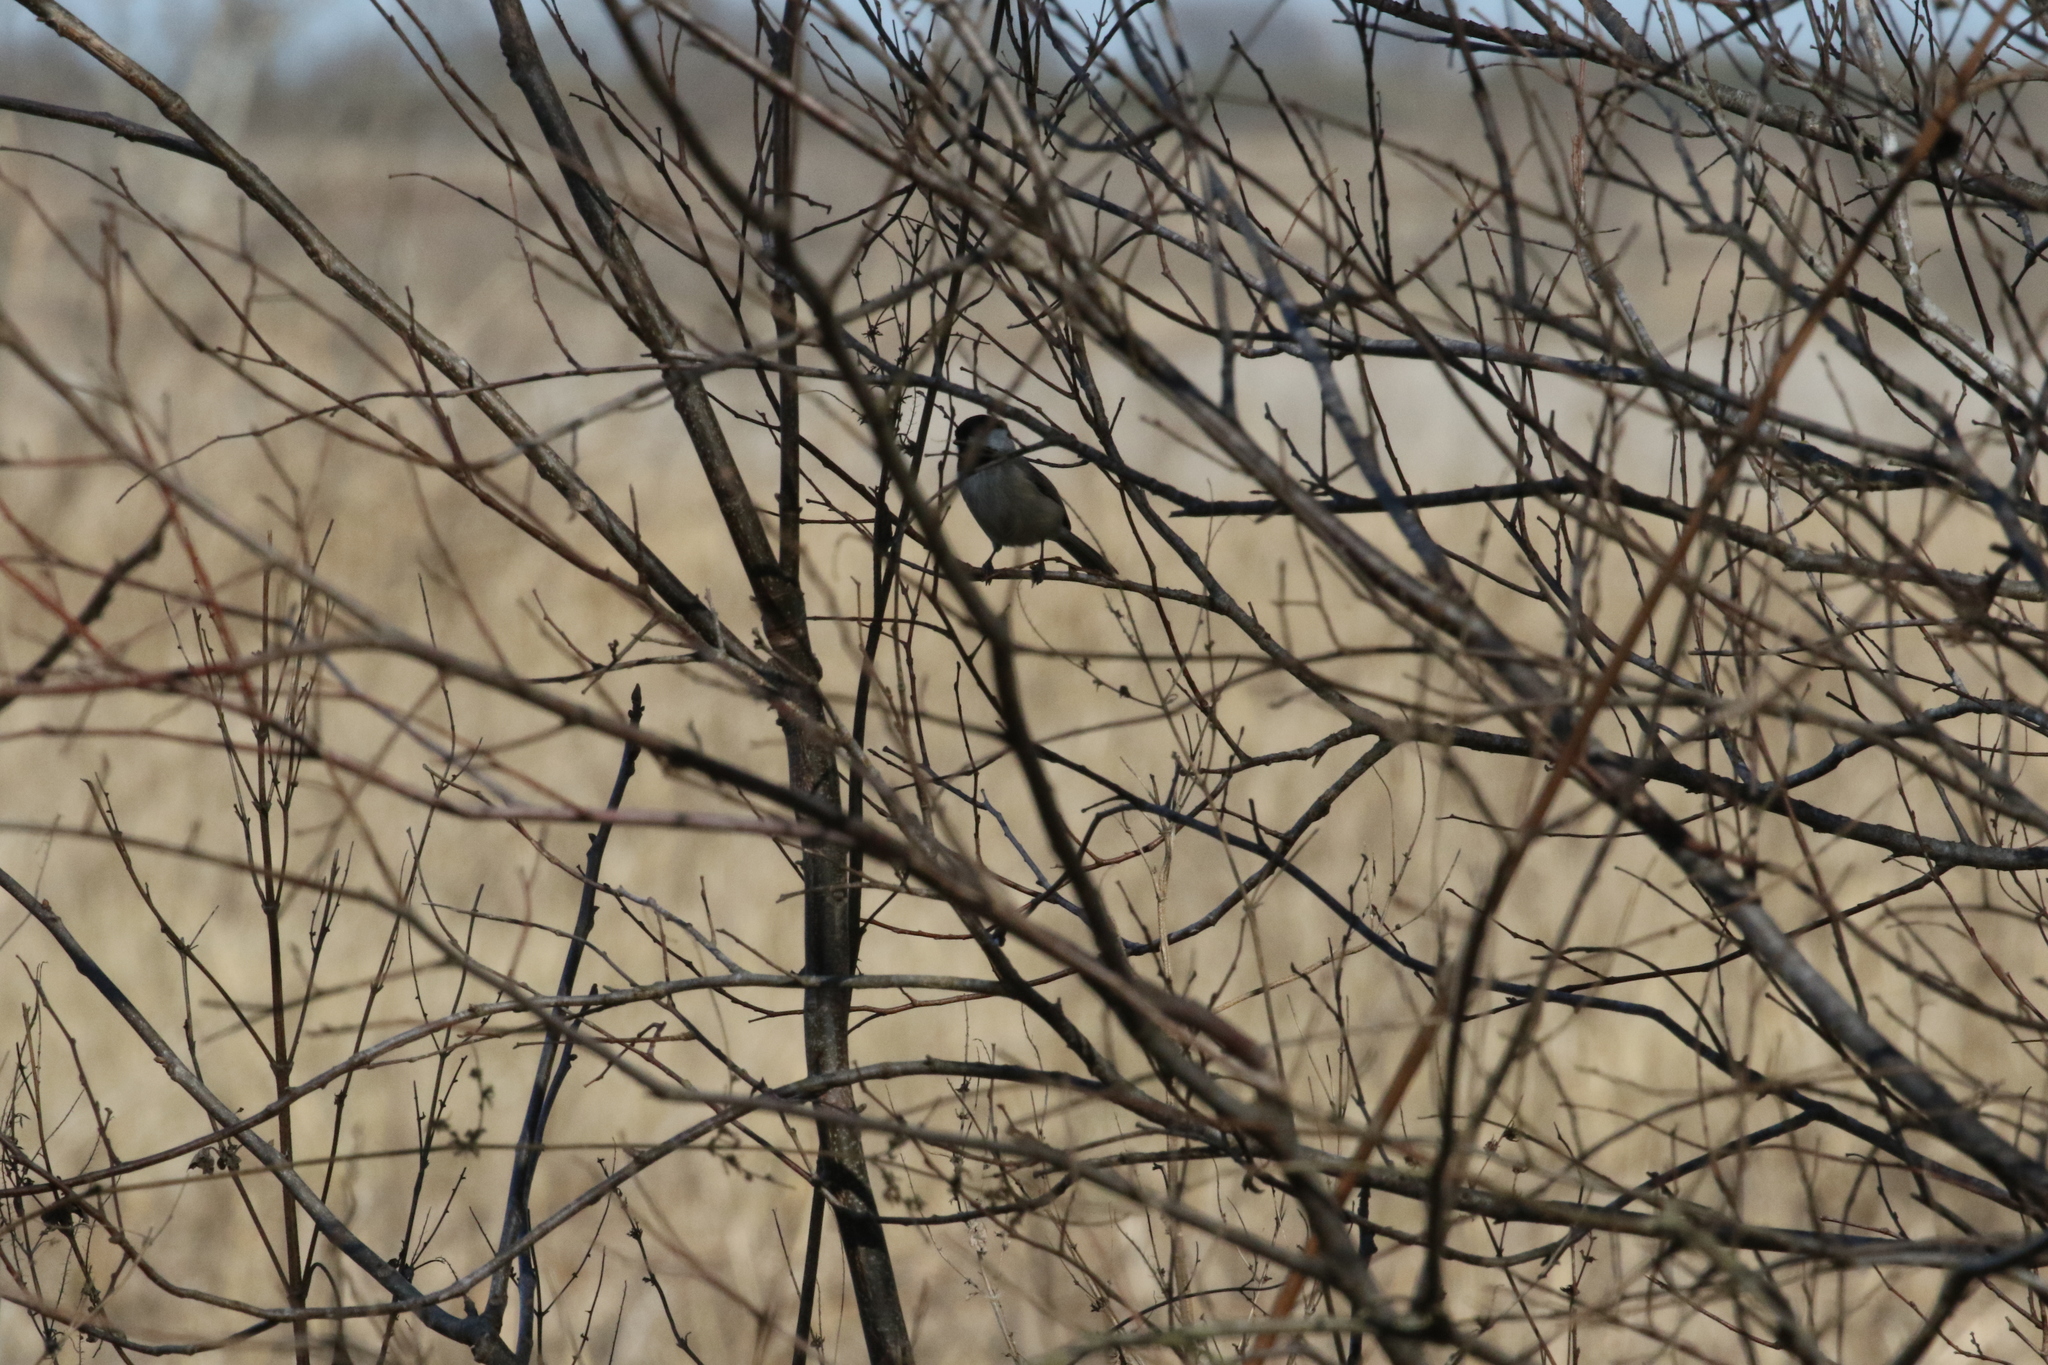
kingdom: Animalia
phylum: Chordata
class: Aves
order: Passeriformes
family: Paridae
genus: Poecile
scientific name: Poecile carolinensis
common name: Carolina chickadee
